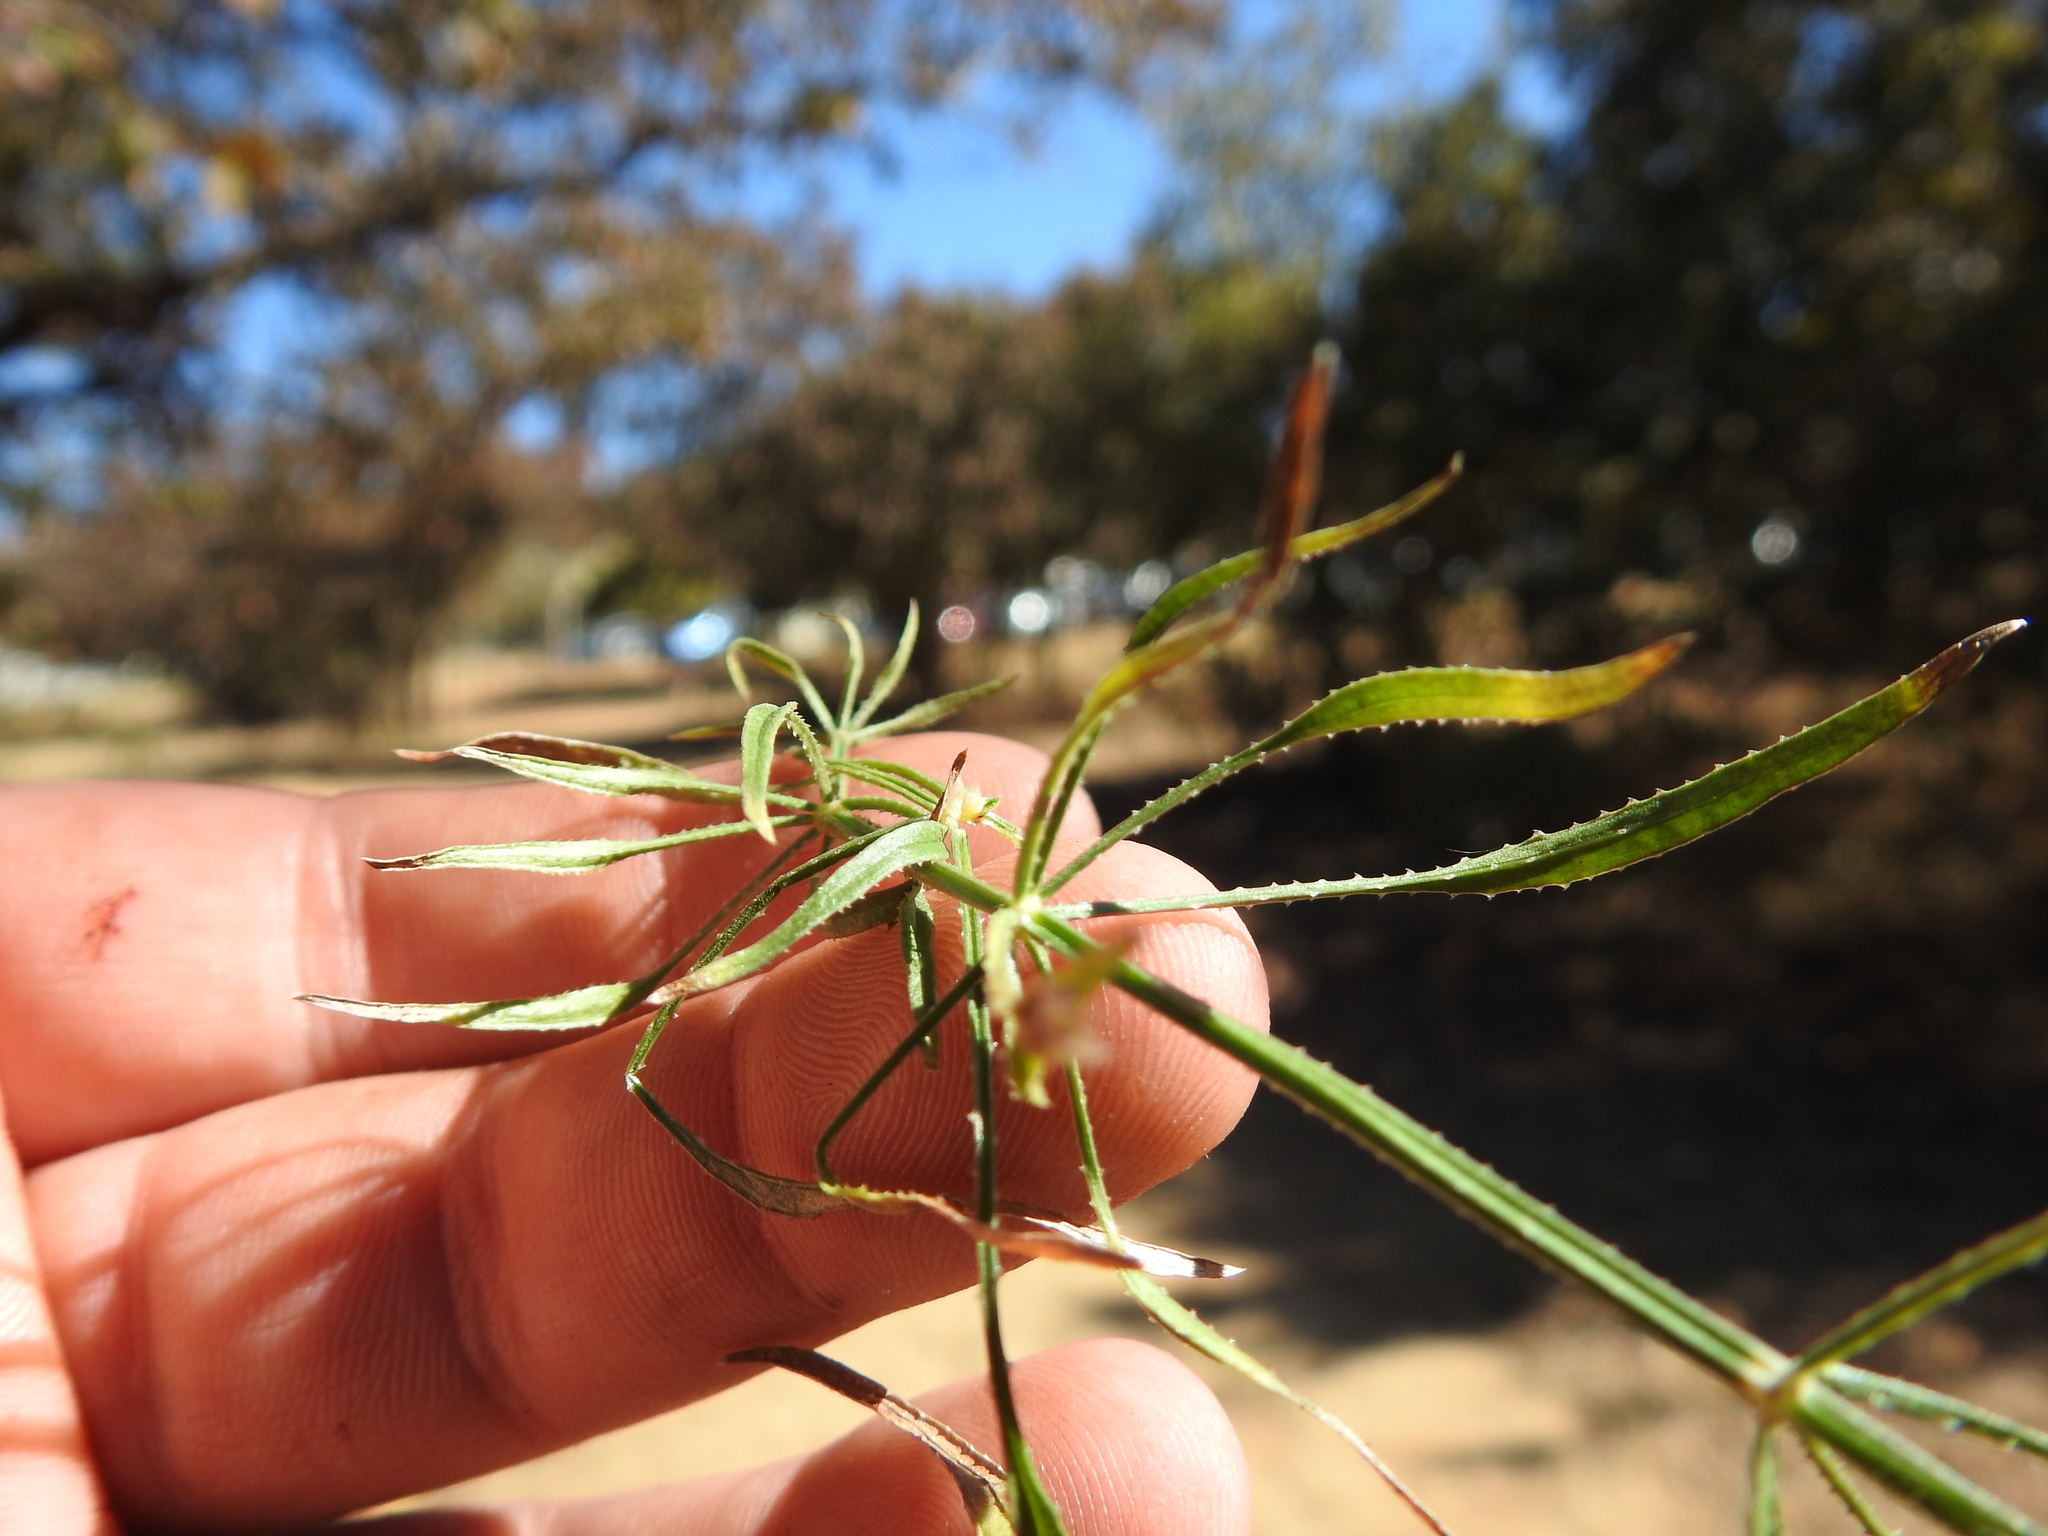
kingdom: Plantae
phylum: Tracheophyta
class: Magnoliopsida
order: Gentianales
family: Rubiaceae
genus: Rubia
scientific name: Rubia horrida
